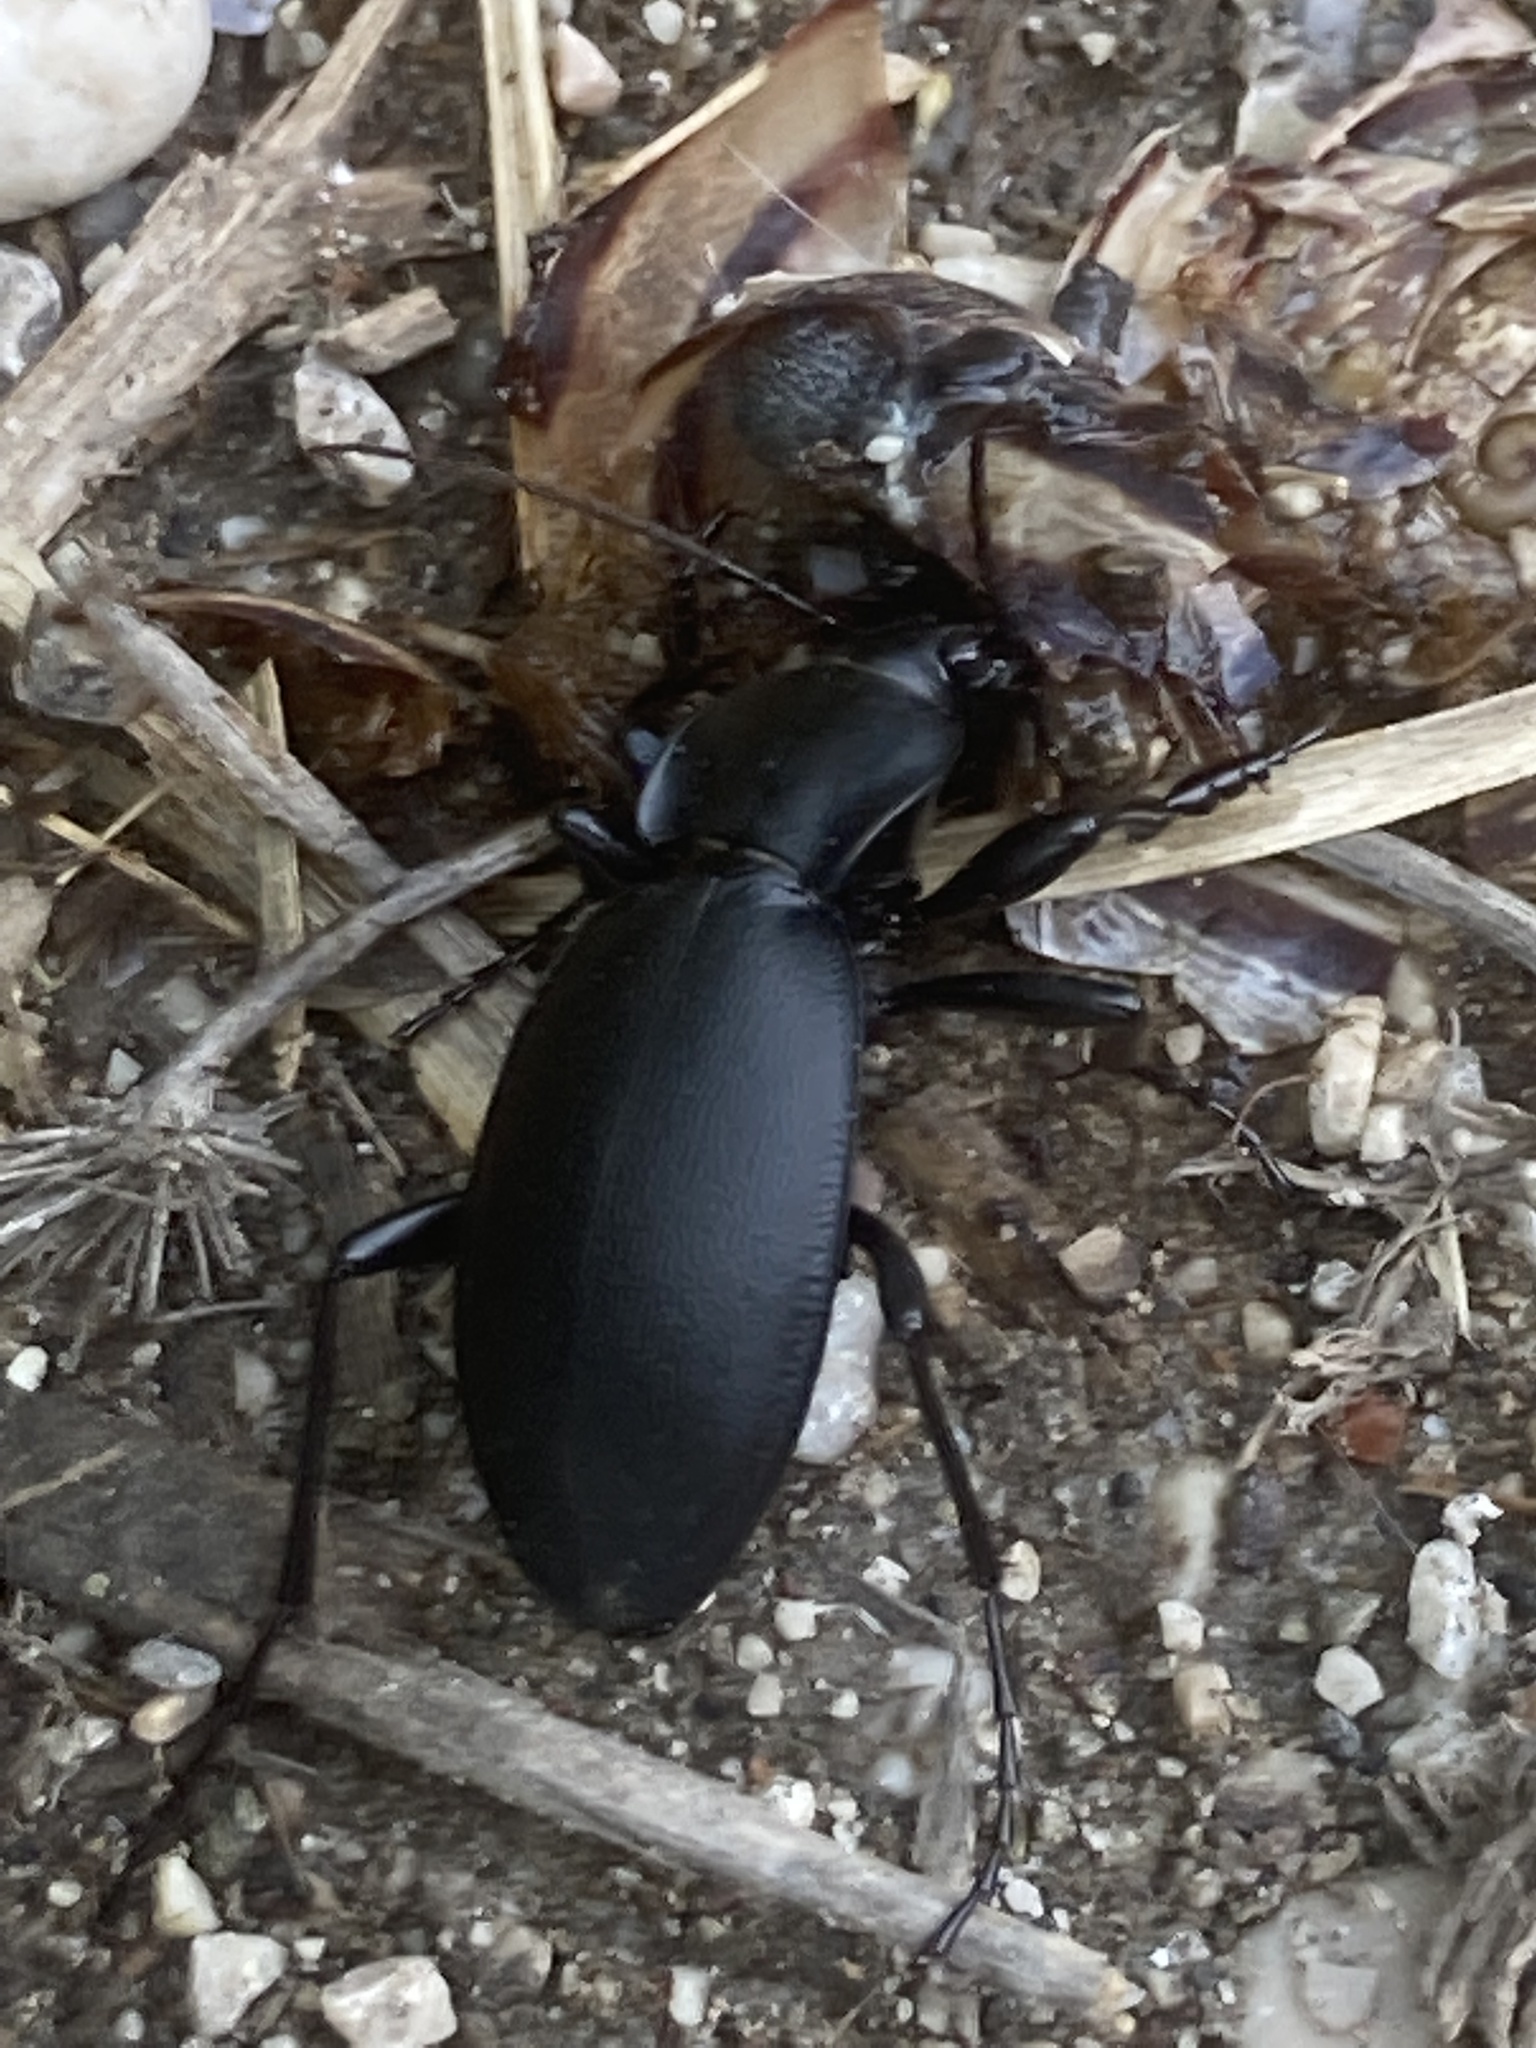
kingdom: Animalia
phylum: Arthropoda
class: Insecta
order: Coleoptera
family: Carabidae
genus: Carabus
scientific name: Carabus coriaceus
